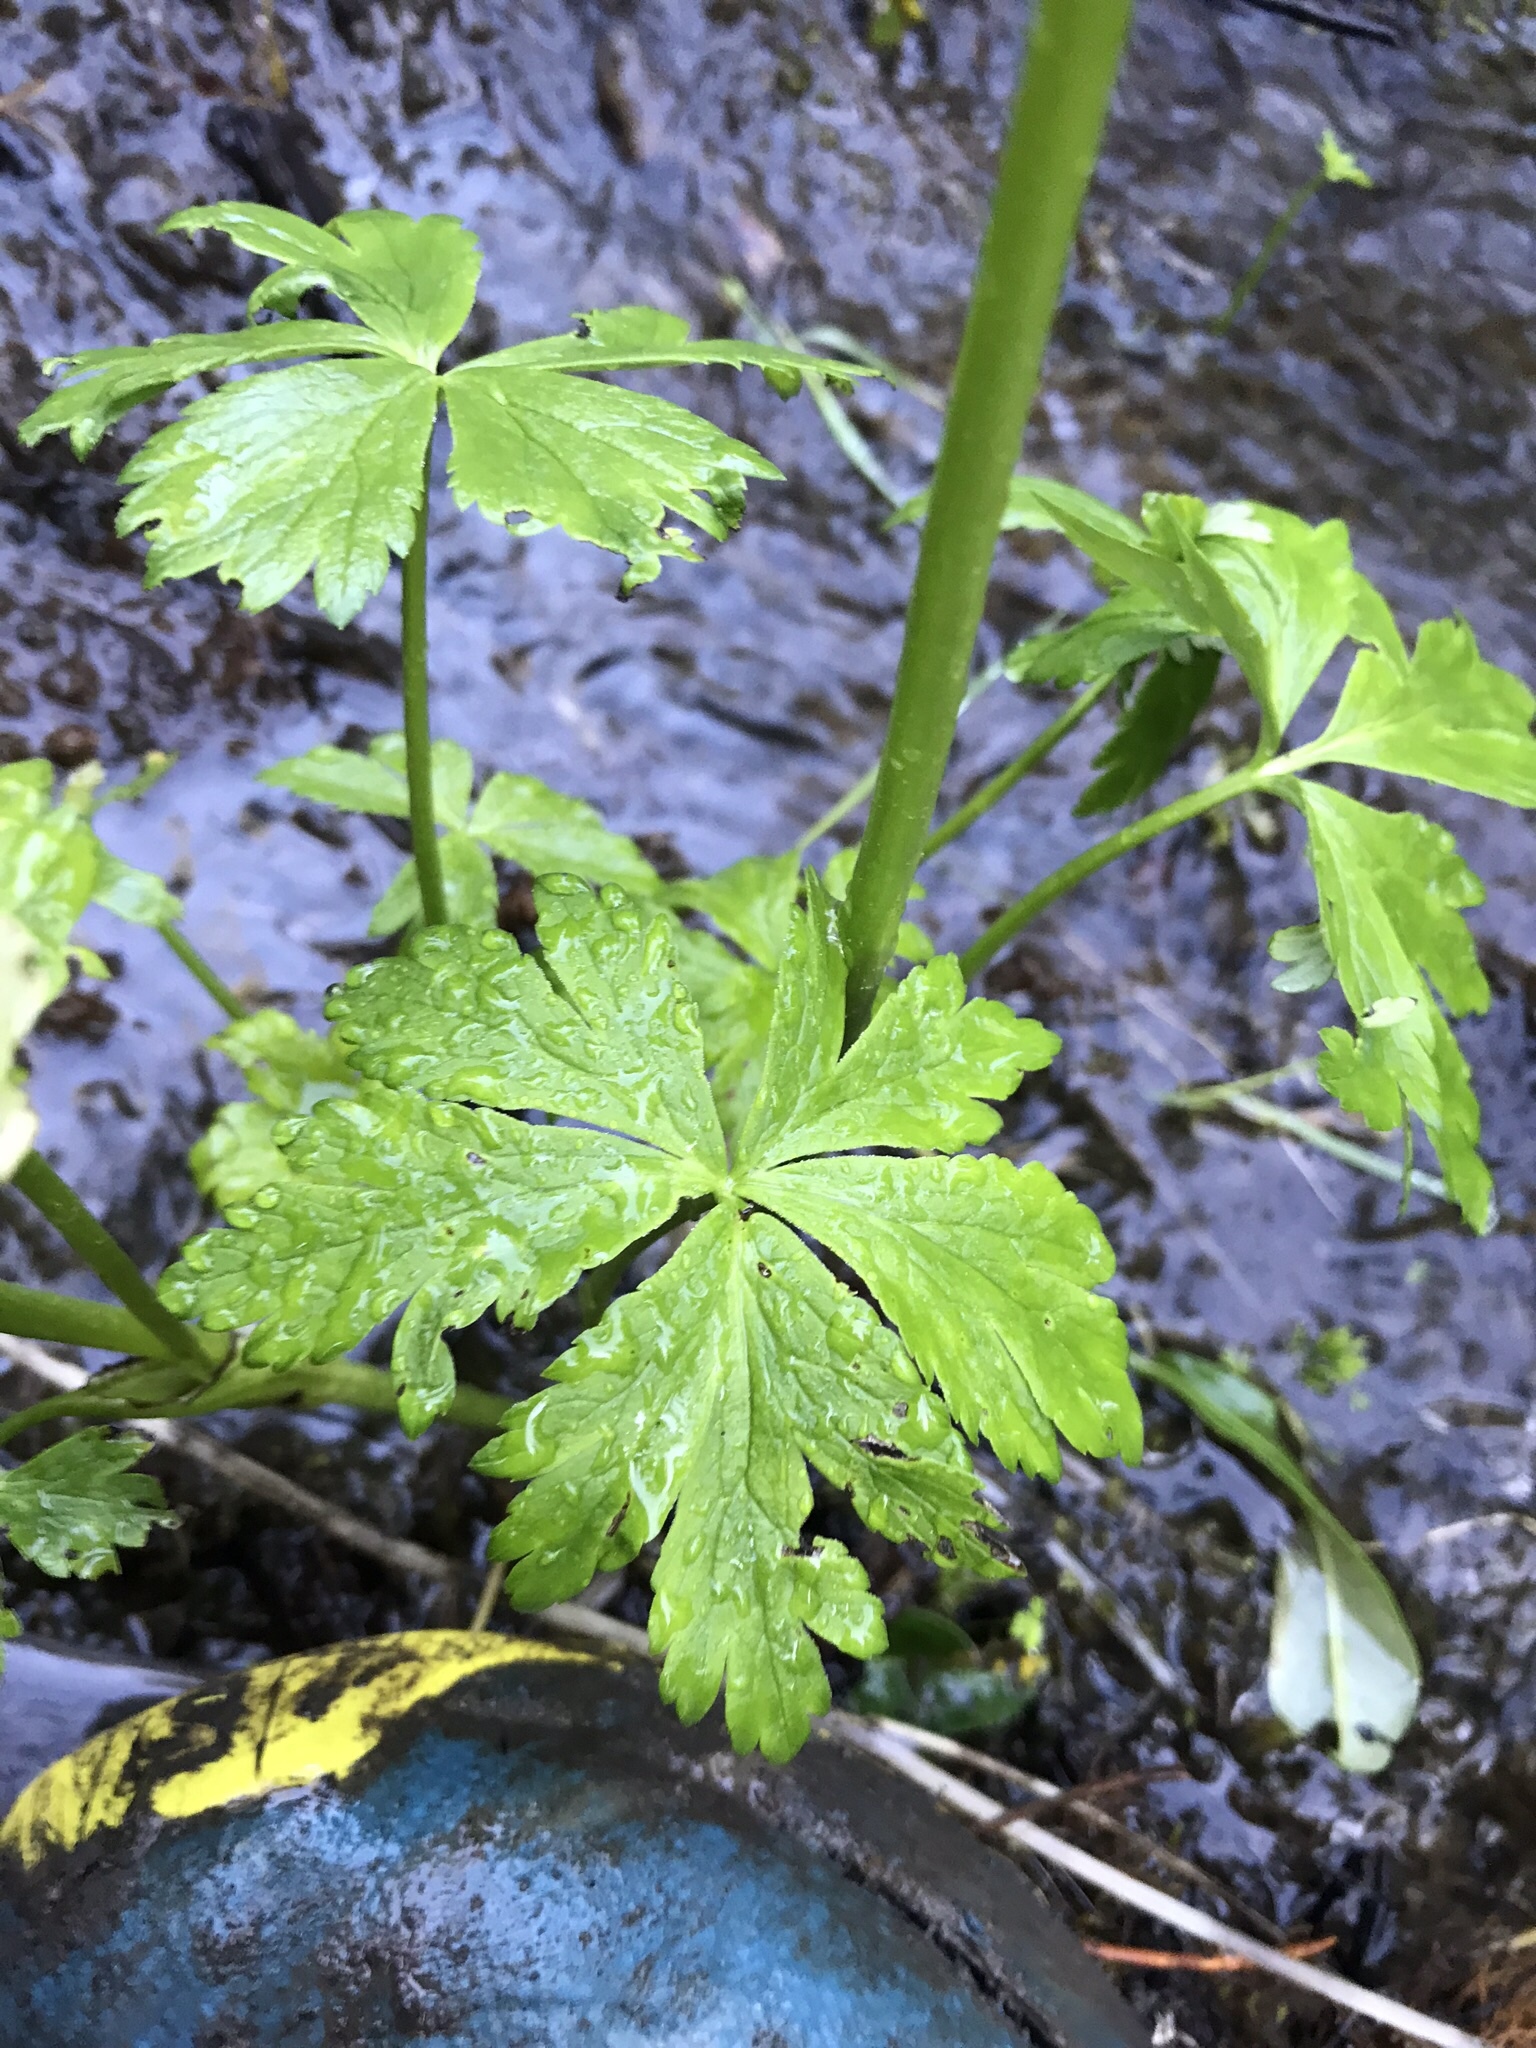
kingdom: Plantae
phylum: Tracheophyta
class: Magnoliopsida
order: Ranunculales
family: Ranunculaceae
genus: Trollius
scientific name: Trollius laxus
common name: American globeflower
